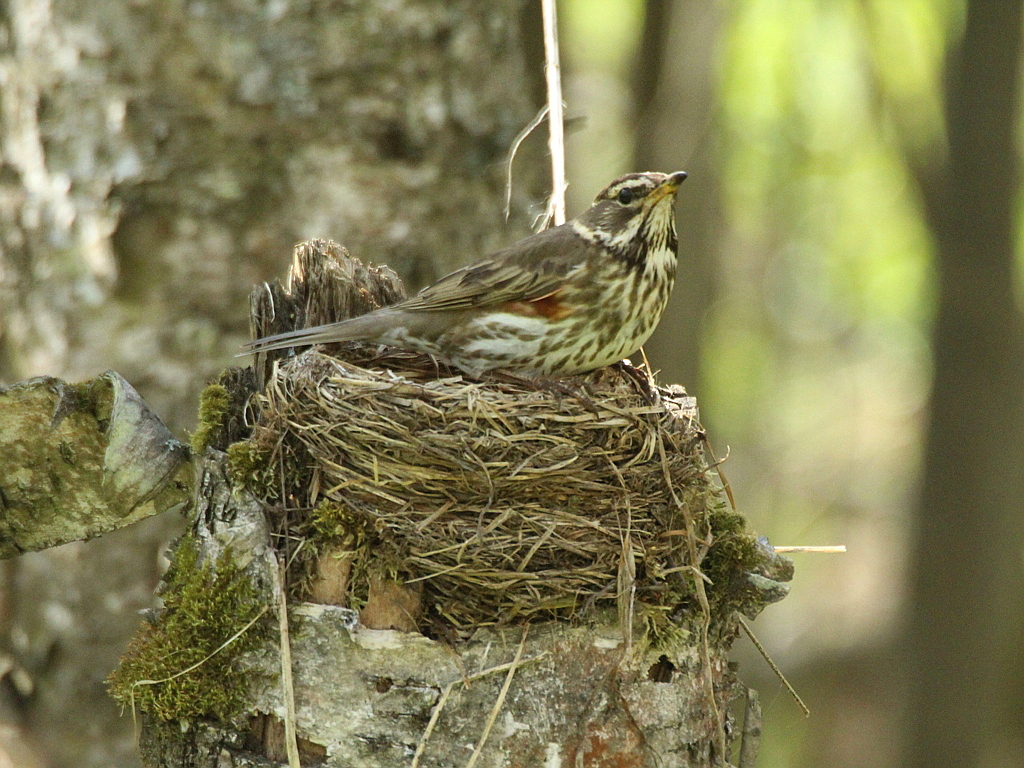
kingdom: Animalia
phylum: Chordata
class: Aves
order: Passeriformes
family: Turdidae
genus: Turdus
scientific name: Turdus iliacus
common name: Redwing
